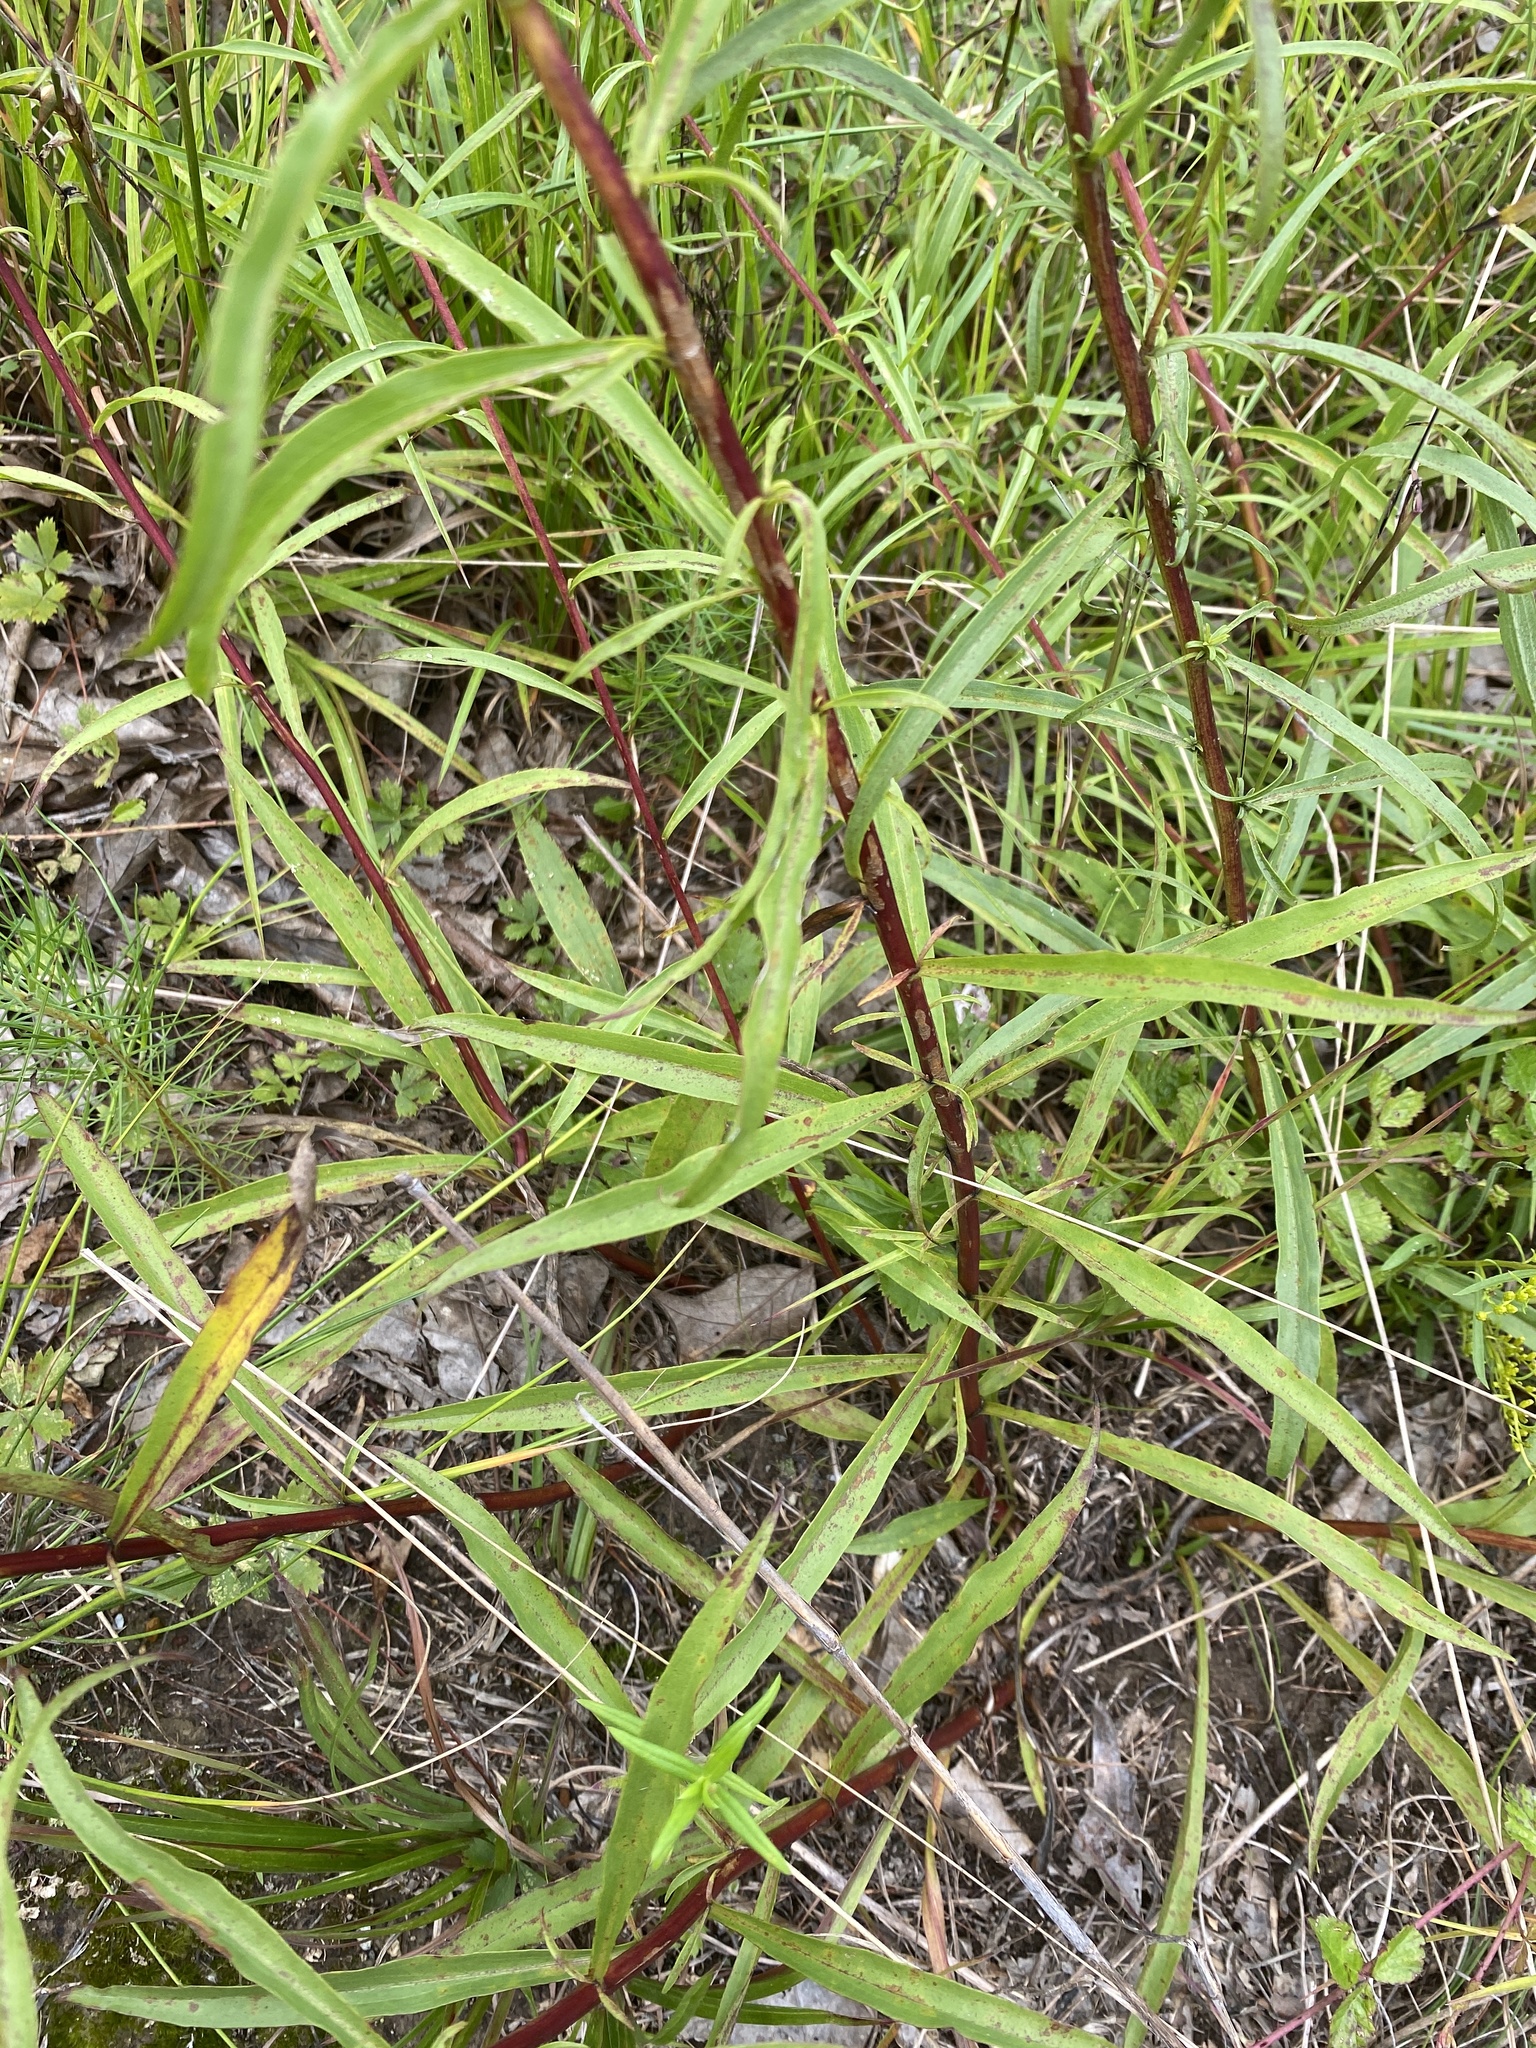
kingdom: Plantae
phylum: Tracheophyta
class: Magnoliopsida
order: Asterales
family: Asteraceae
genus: Solidago
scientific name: Solidago pinetorum
